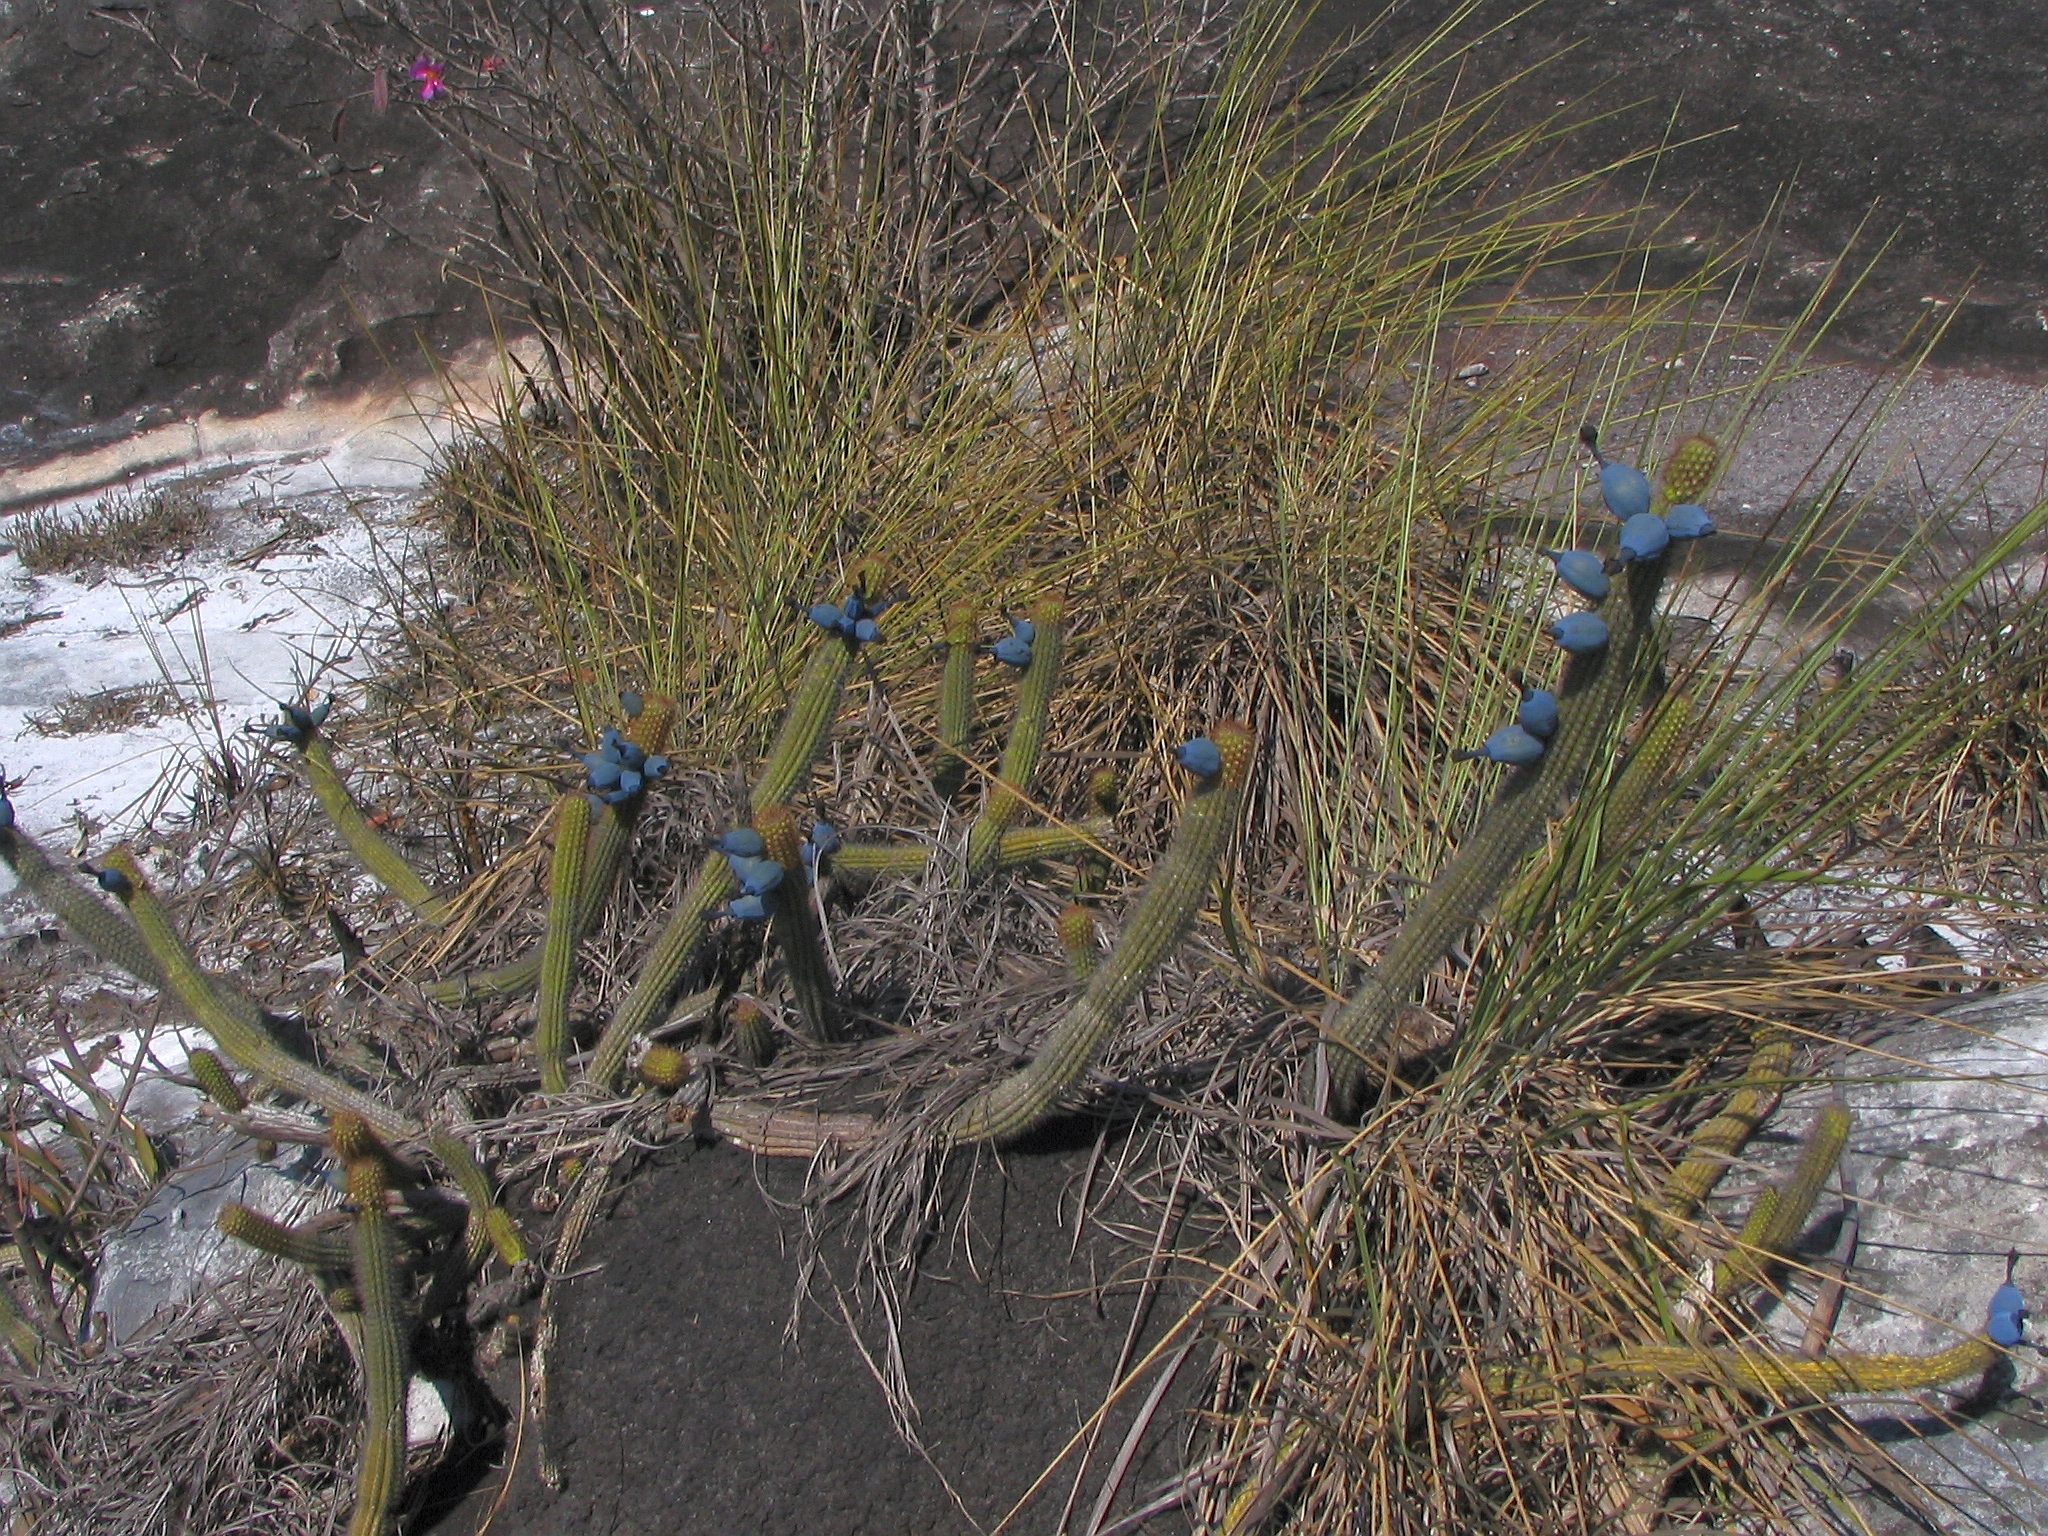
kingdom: Plantae
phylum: Tracheophyta
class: Magnoliopsida
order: Caryophyllales
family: Cactaceae
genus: Cipocereus
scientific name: Cipocereus minensis
